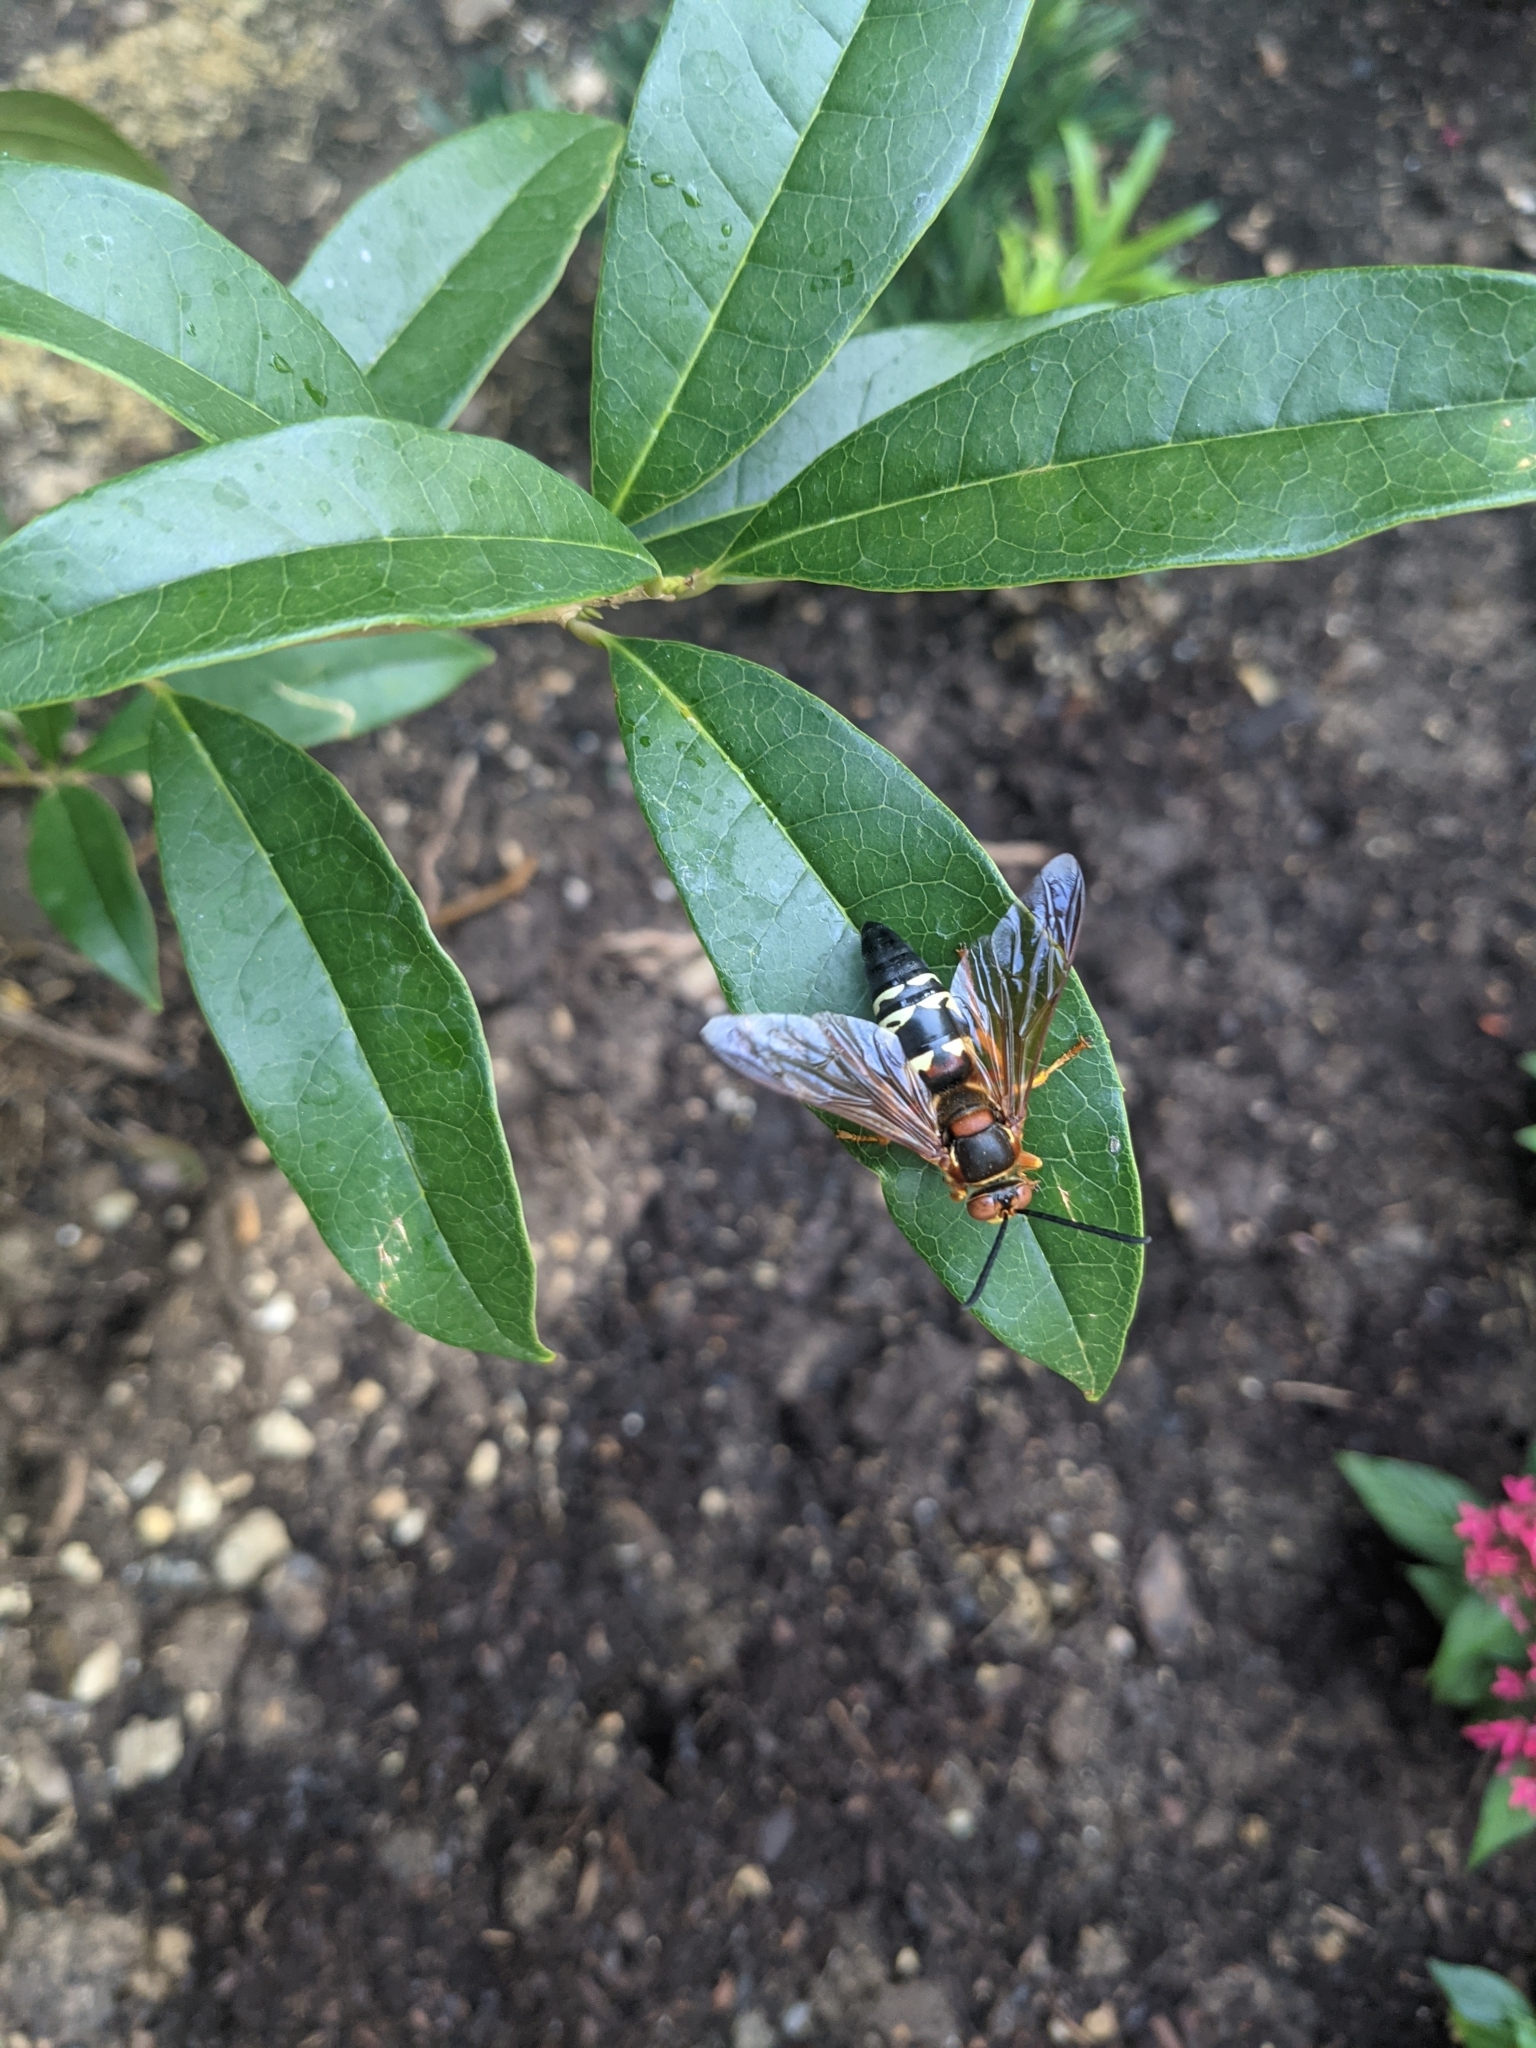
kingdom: Animalia
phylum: Arthropoda
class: Insecta
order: Hymenoptera
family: Crabronidae
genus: Sphecius
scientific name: Sphecius speciosus
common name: Cicada killer
